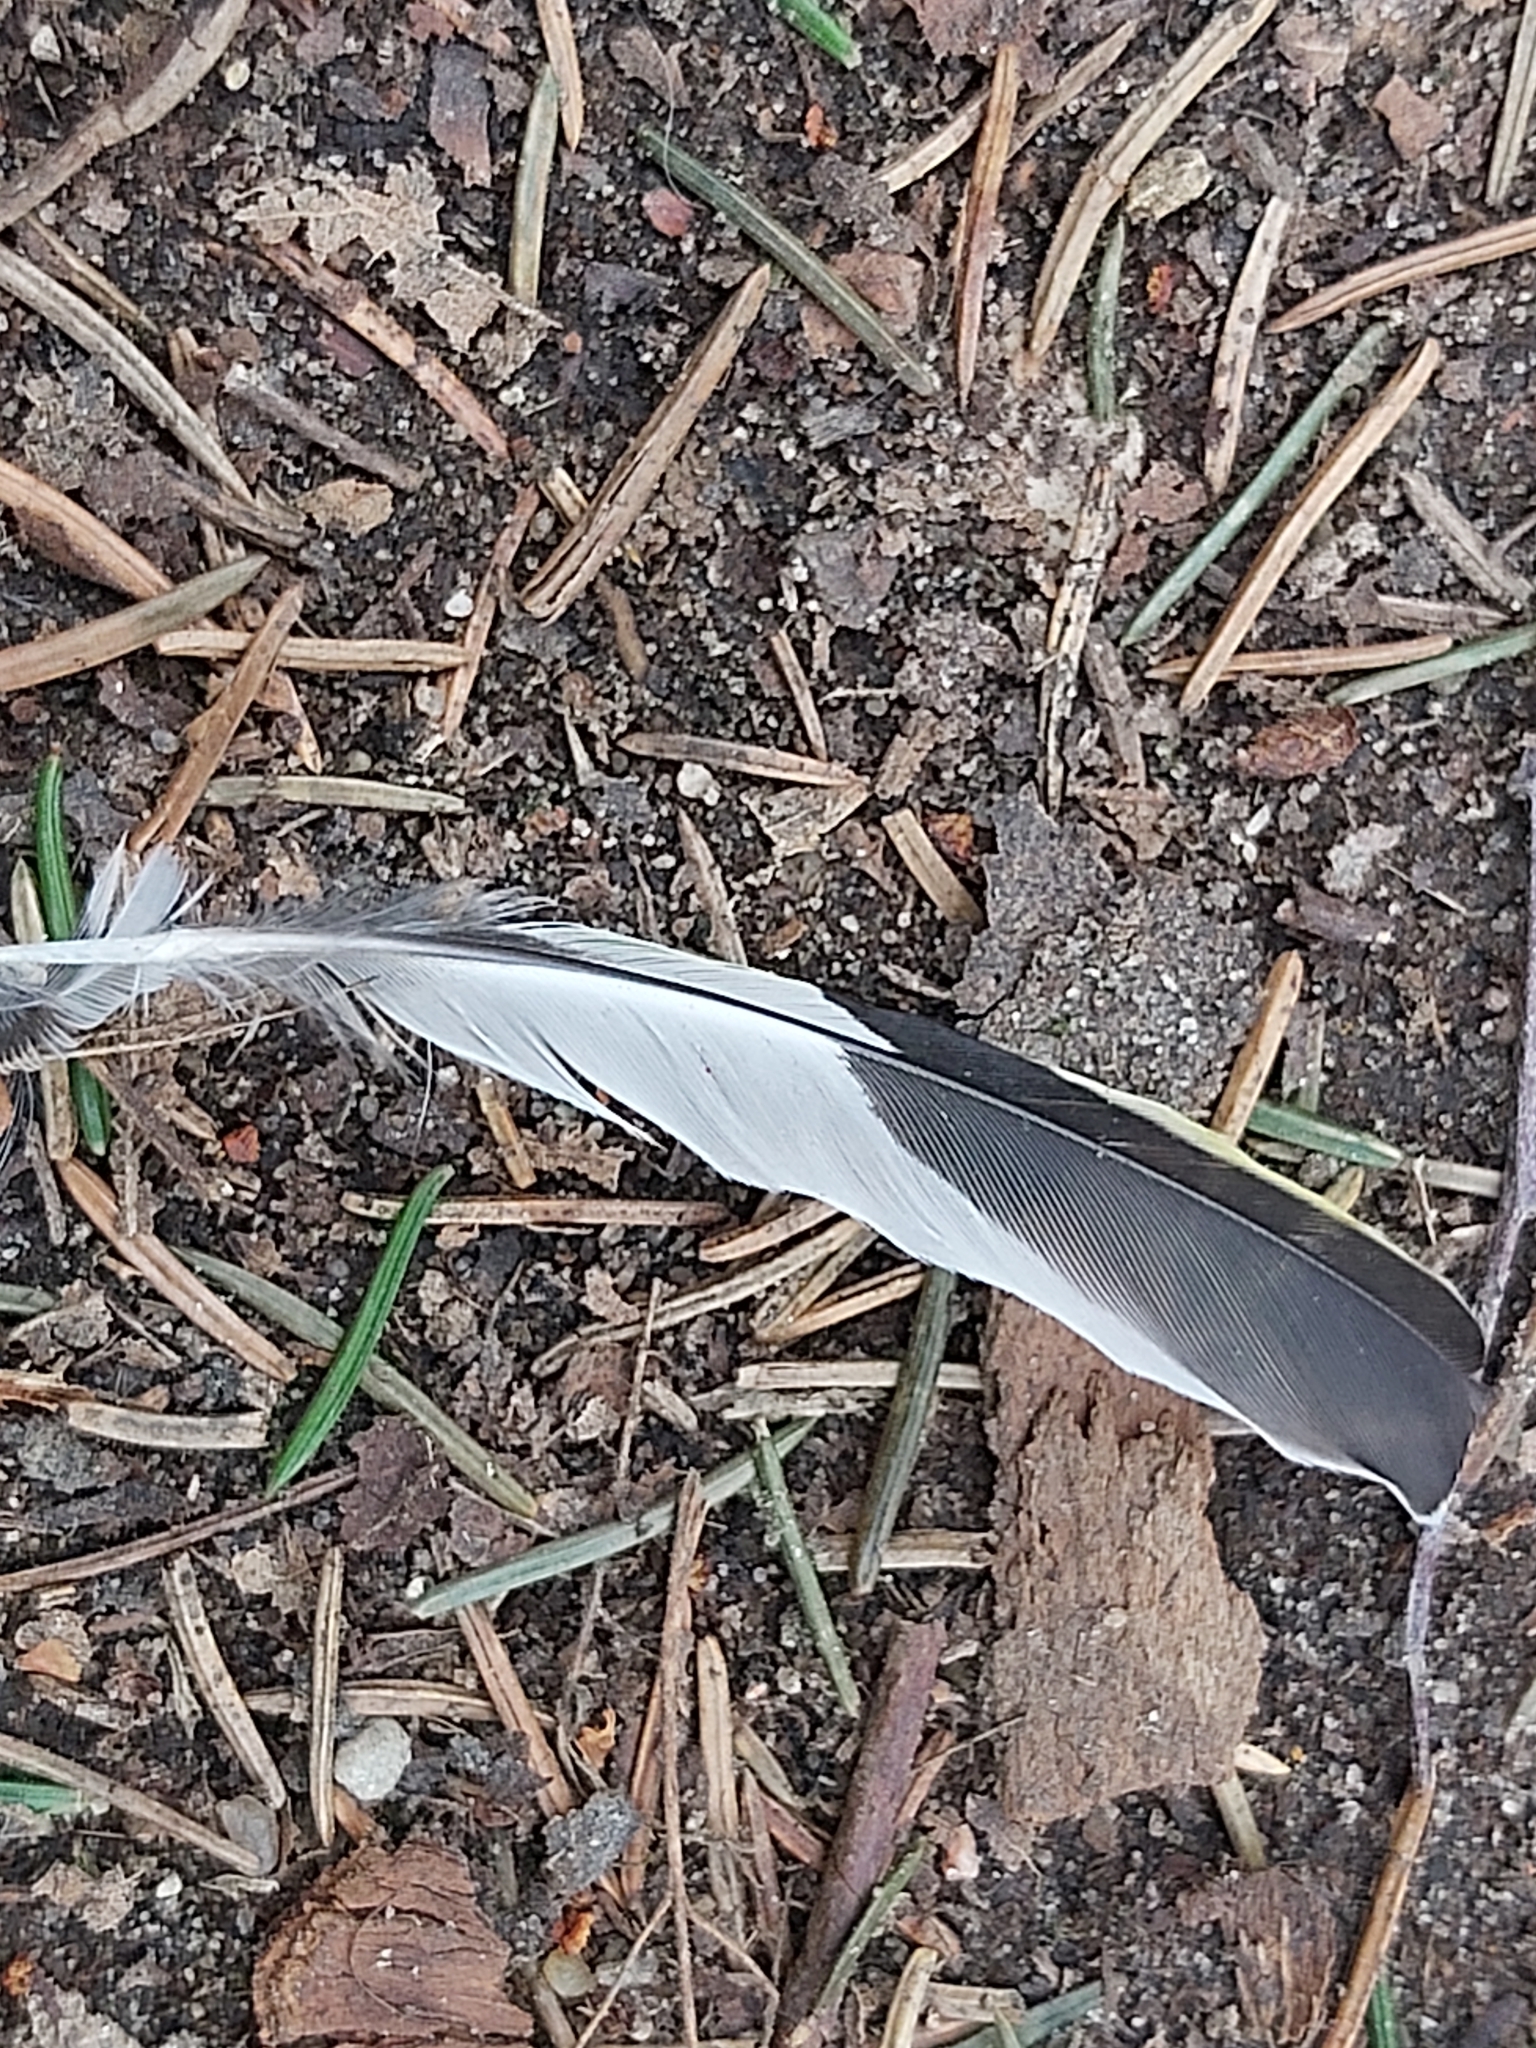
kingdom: Animalia
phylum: Chordata
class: Aves
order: Passeriformes
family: Fringillidae
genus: Fringilla
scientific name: Fringilla coelebs
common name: Common chaffinch
